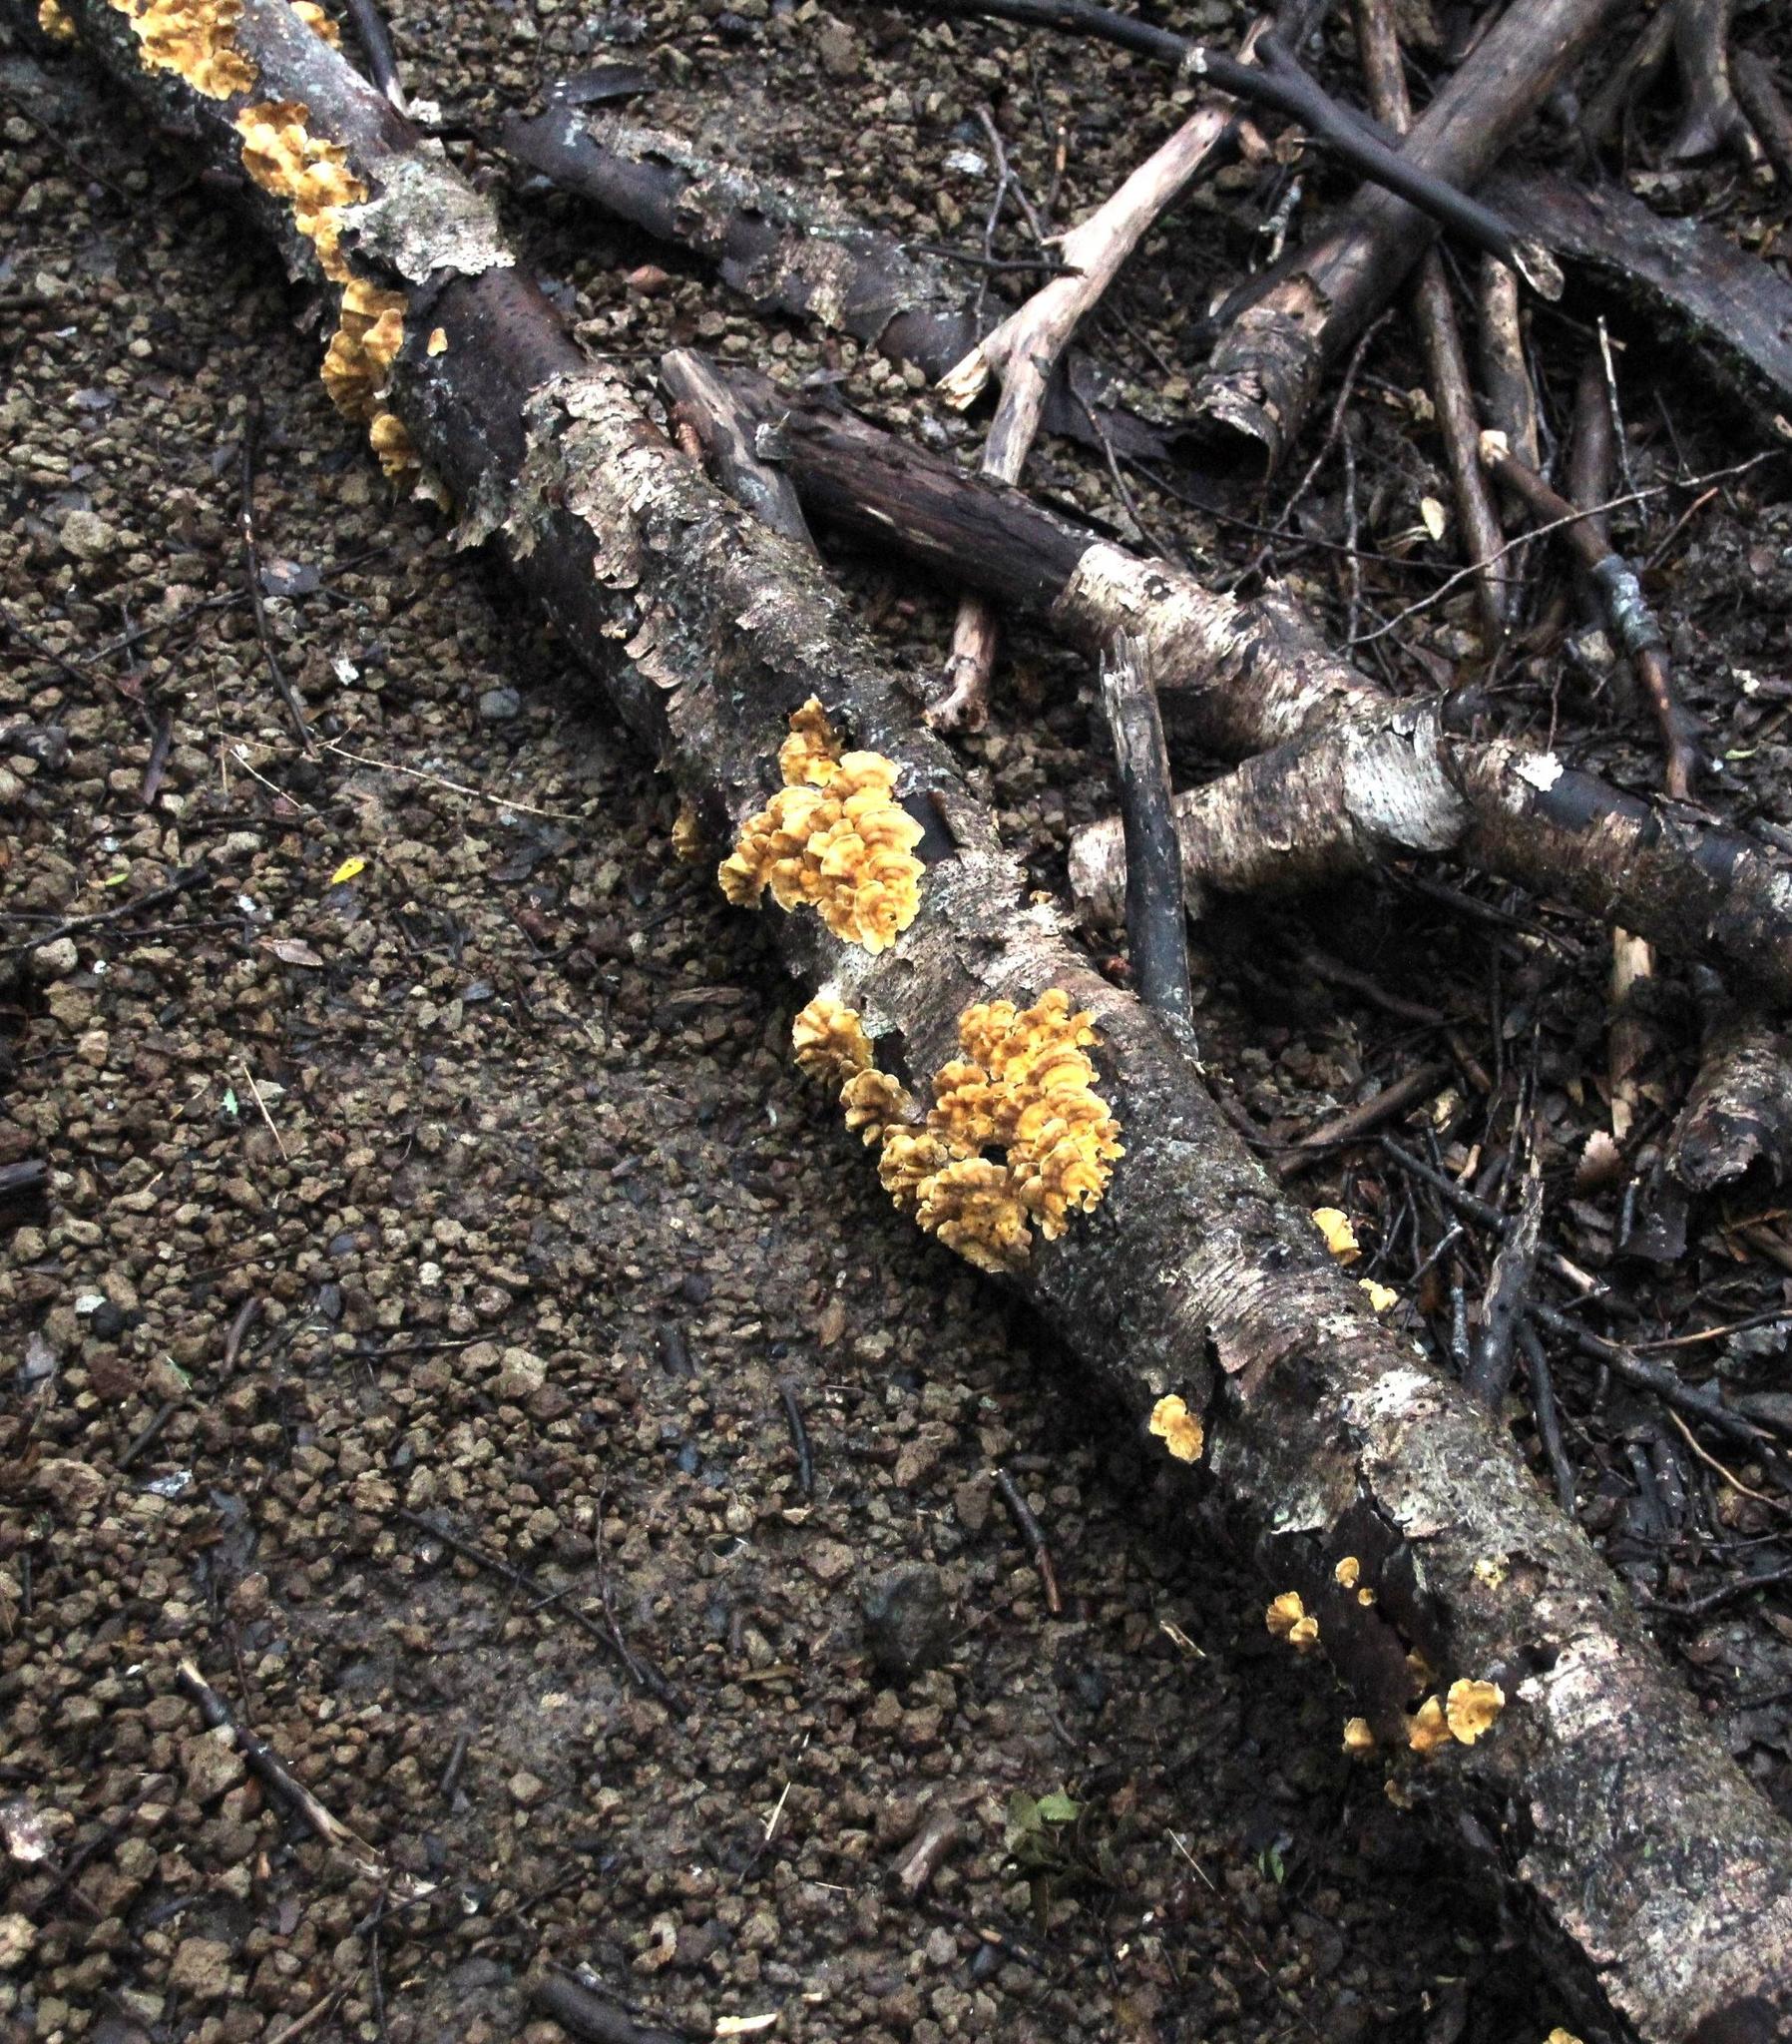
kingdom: Fungi
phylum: Basidiomycota
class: Agaricomycetes
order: Russulales
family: Stereaceae
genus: Stereum
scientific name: Stereum hirsutum
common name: Hairy curtain crust
